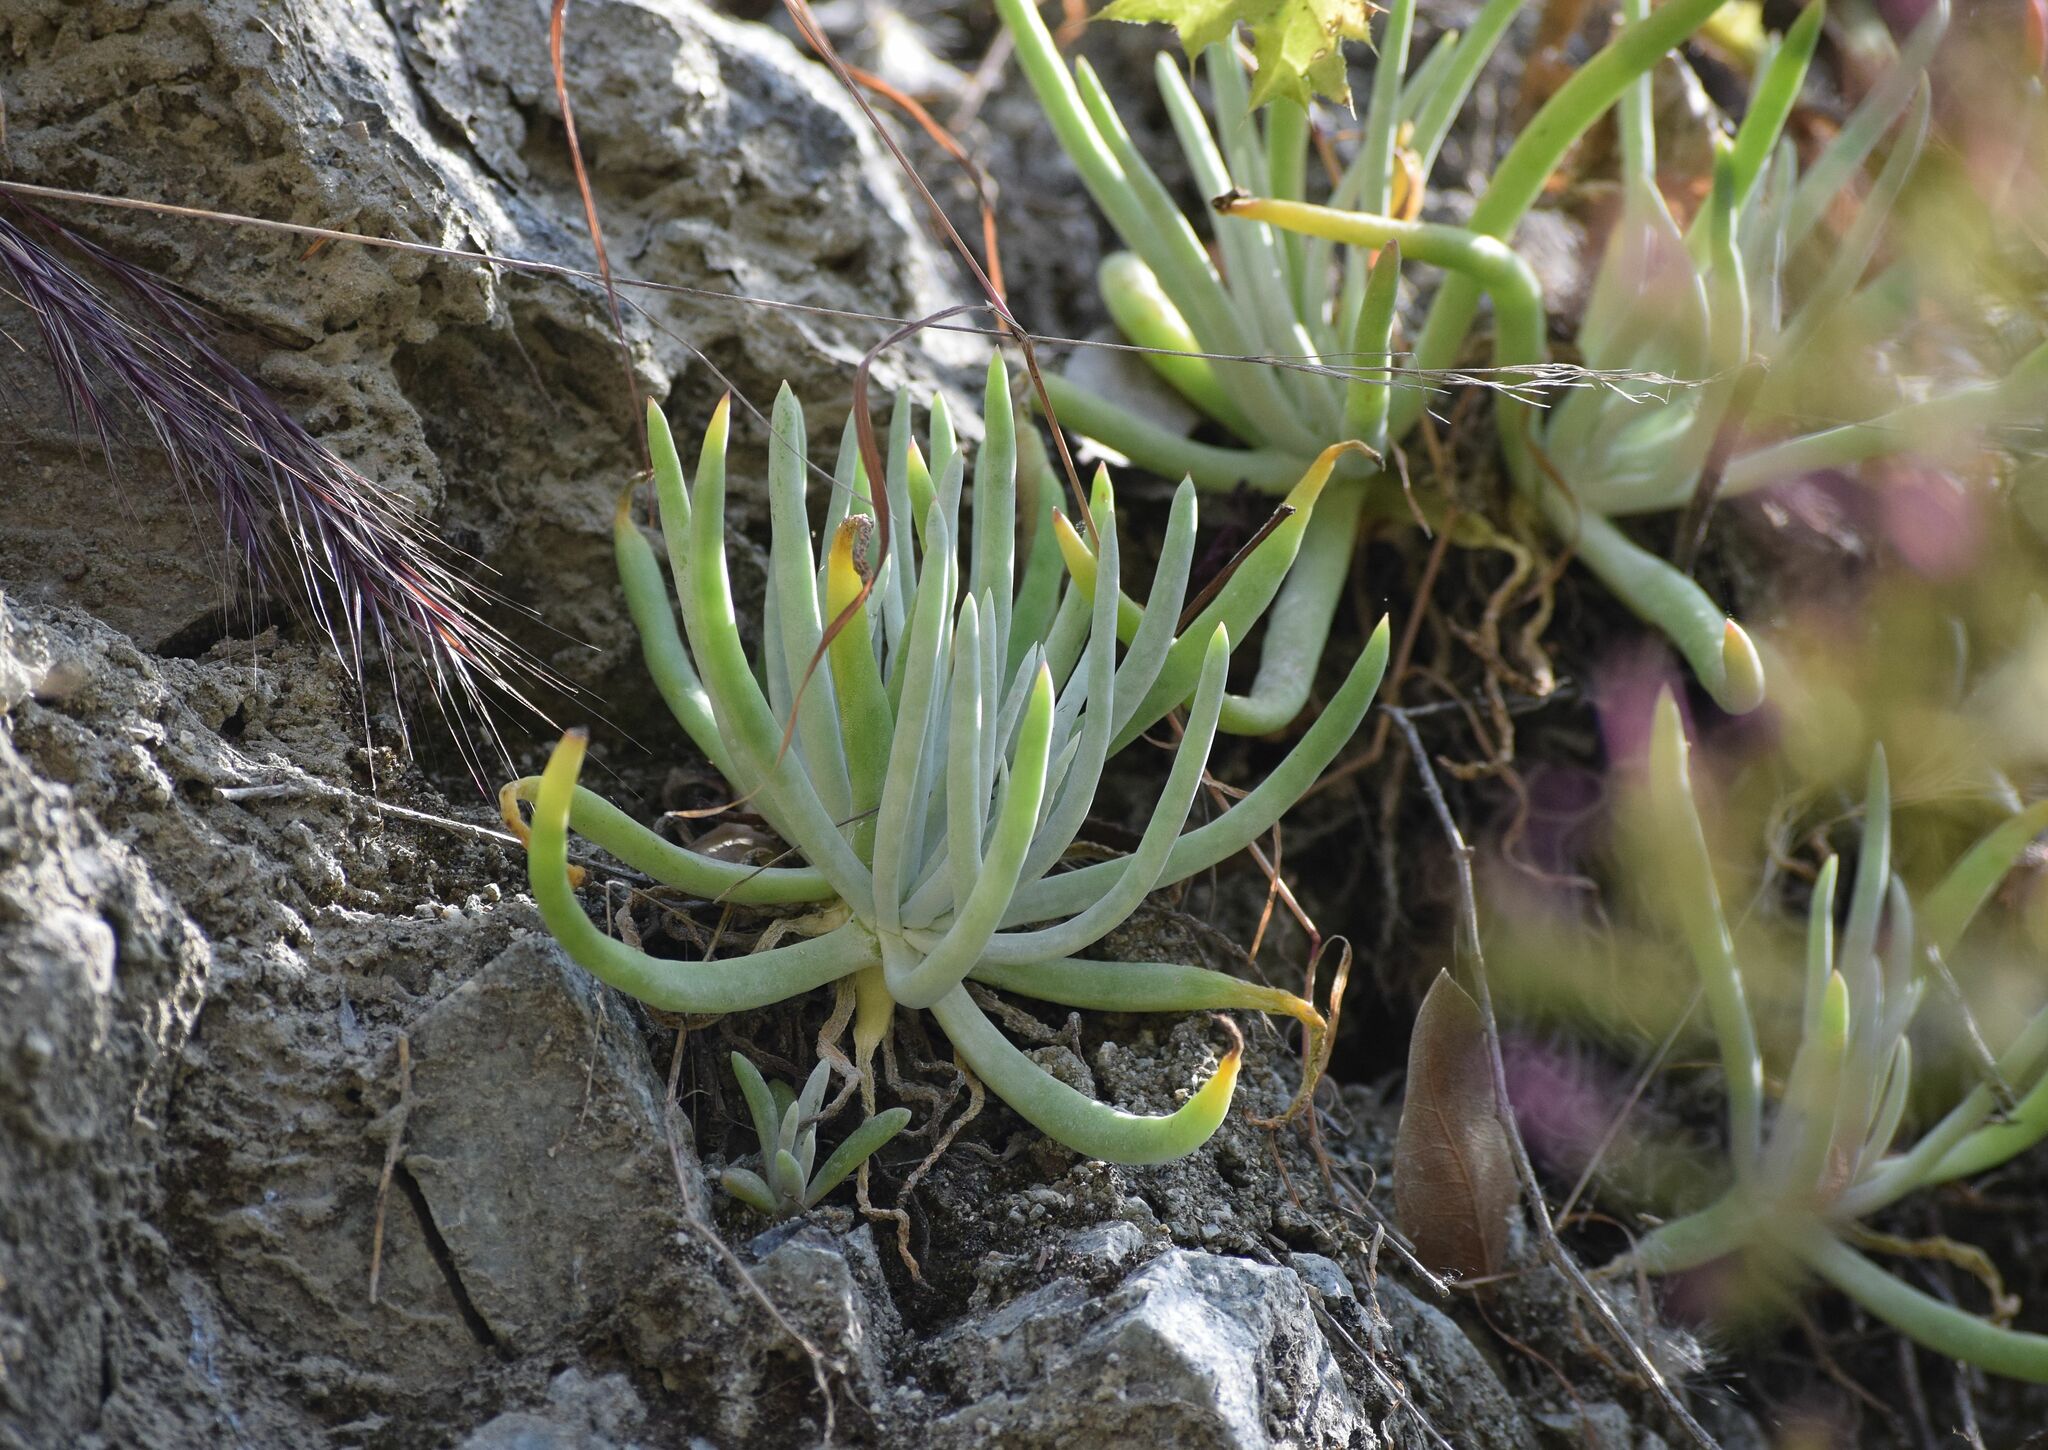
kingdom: Plantae
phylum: Tracheophyta
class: Magnoliopsida
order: Saxifragales
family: Crassulaceae
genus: Dudleya
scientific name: Dudleya densiflora
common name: San gabriel mountains dudleya
